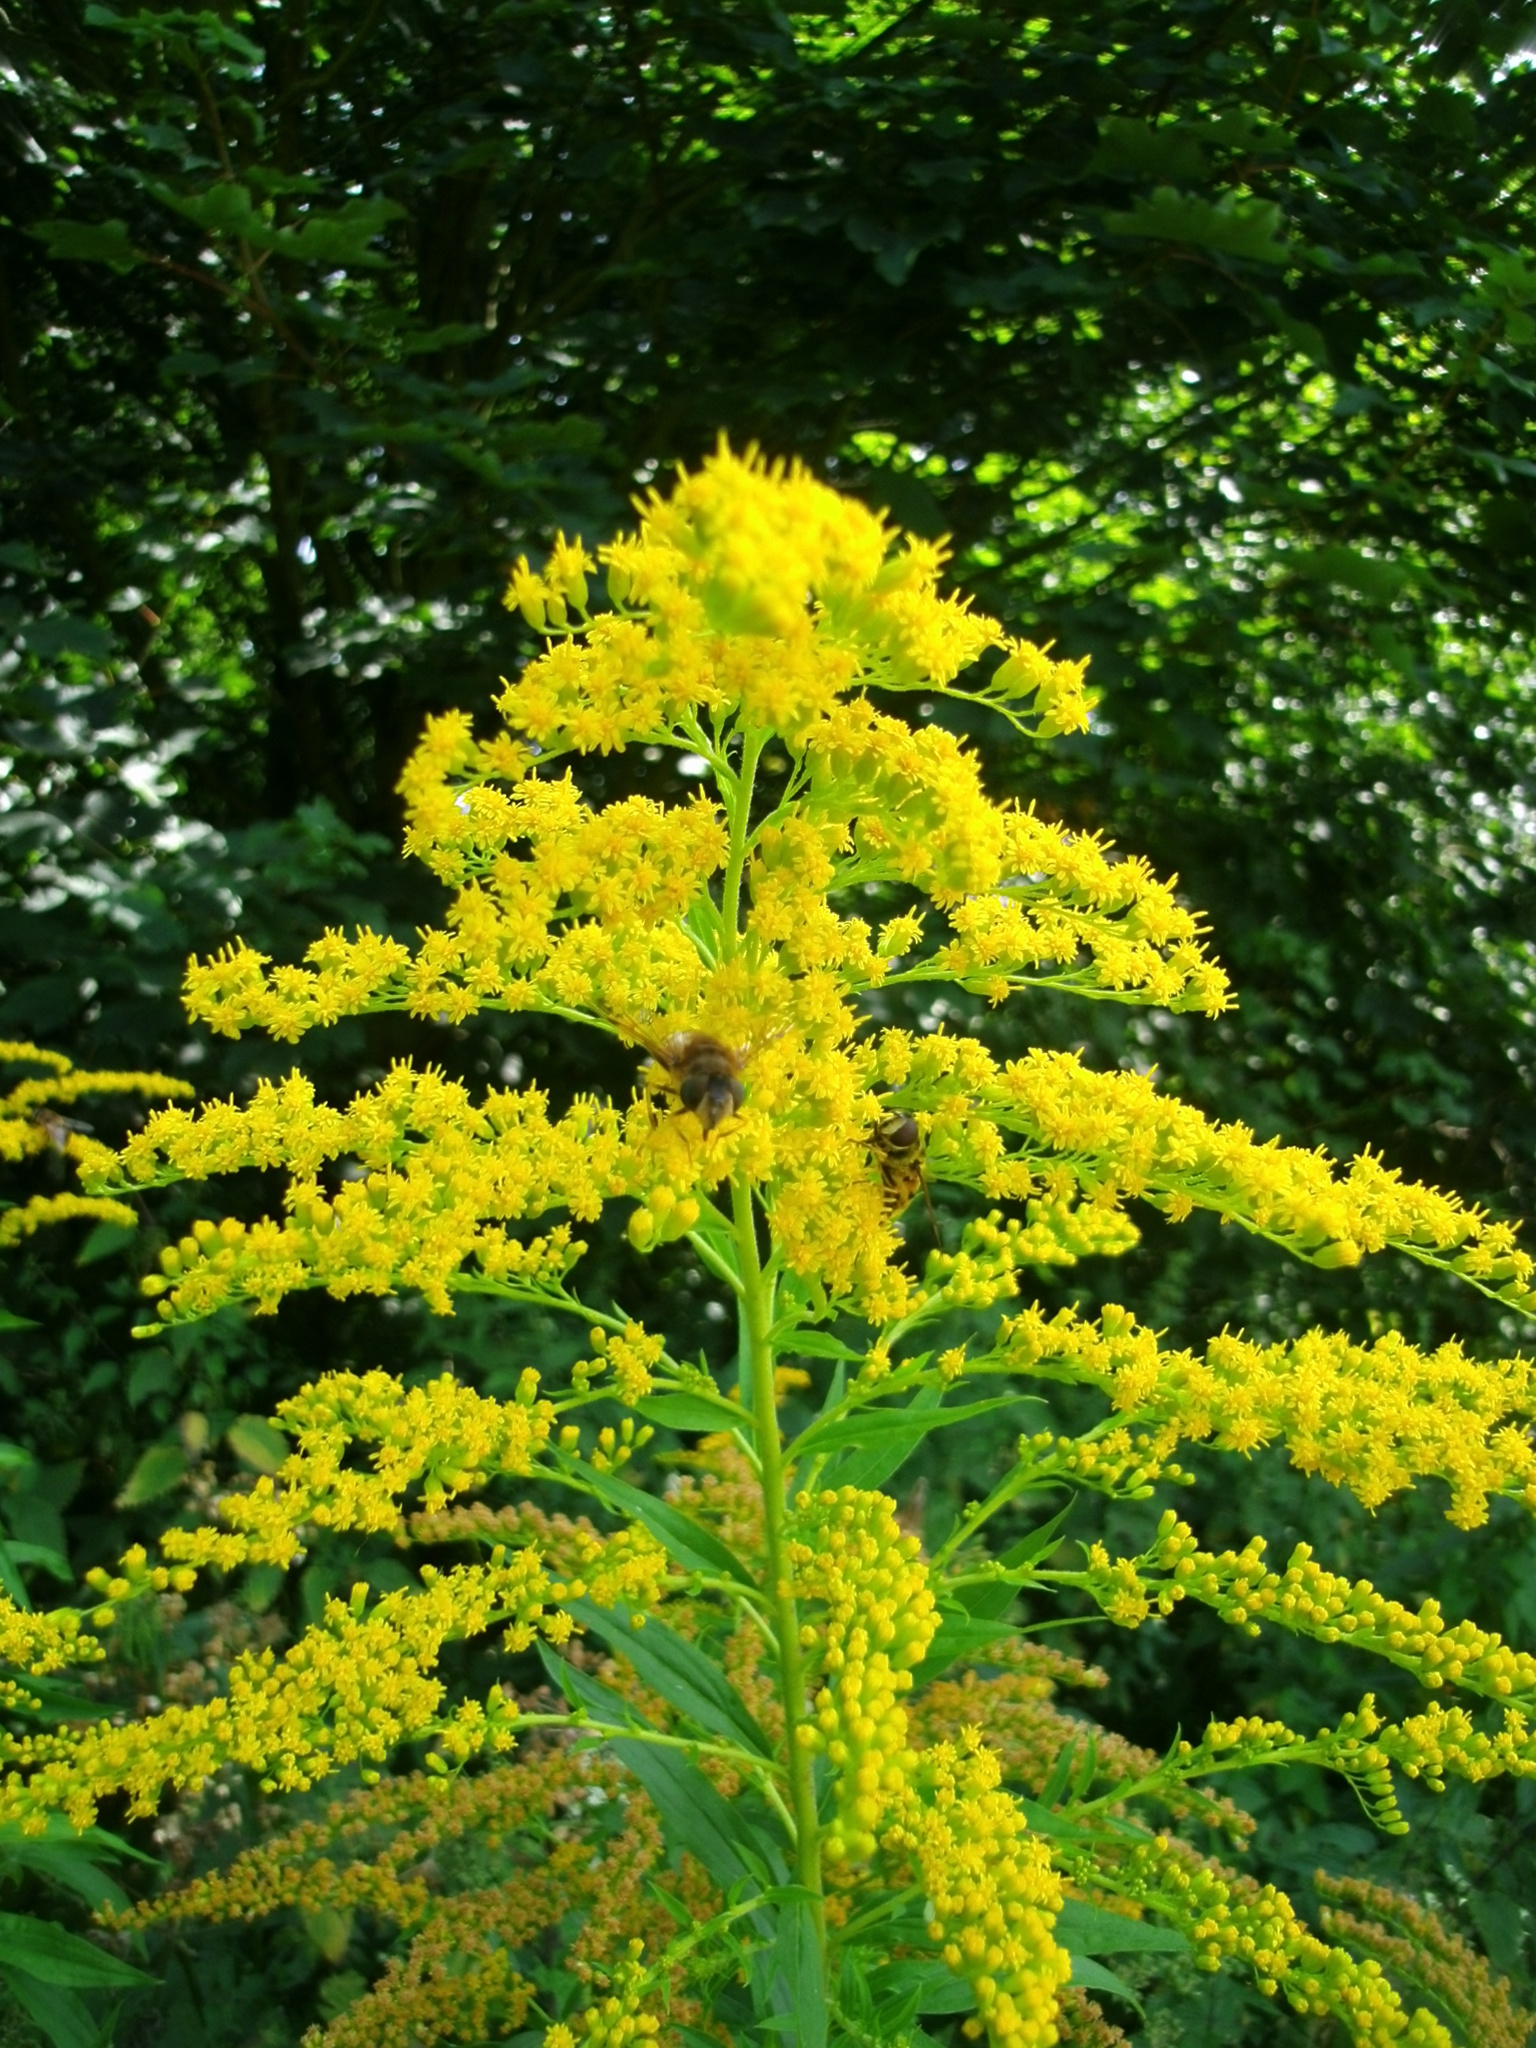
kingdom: Plantae
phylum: Tracheophyta
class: Magnoliopsida
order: Asterales
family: Asteraceae
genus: Solidago
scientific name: Solidago canadensis
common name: Canada goldenrod
